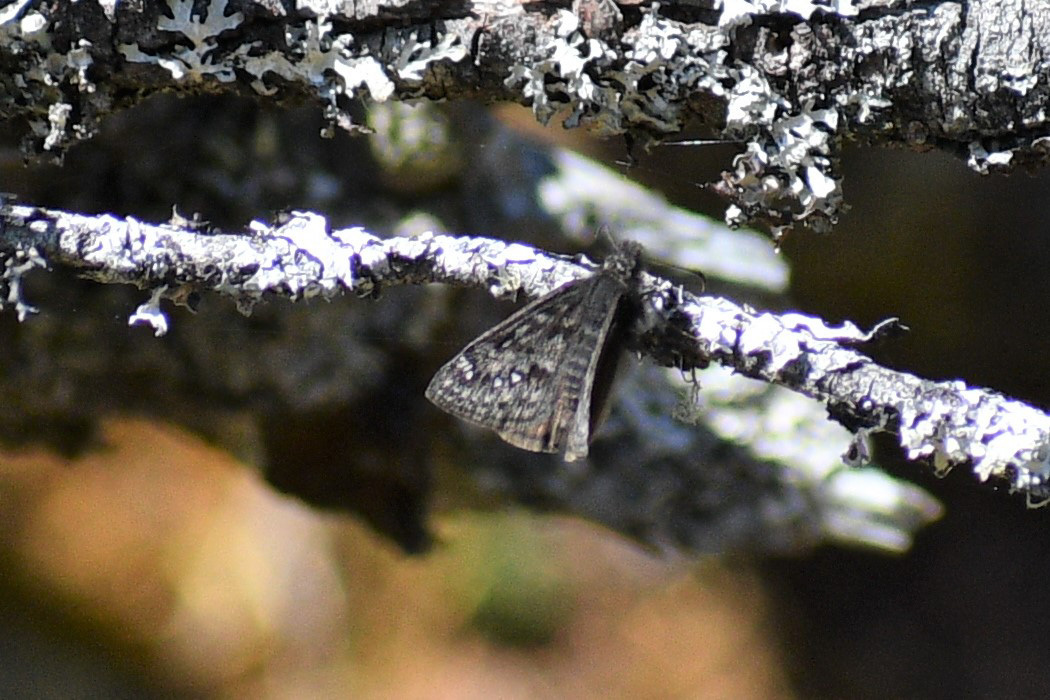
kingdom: Animalia
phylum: Arthropoda
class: Insecta
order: Lepidoptera
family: Hesperiidae
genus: Erynnis
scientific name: Erynnis propertius
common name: Propertius duskywing
